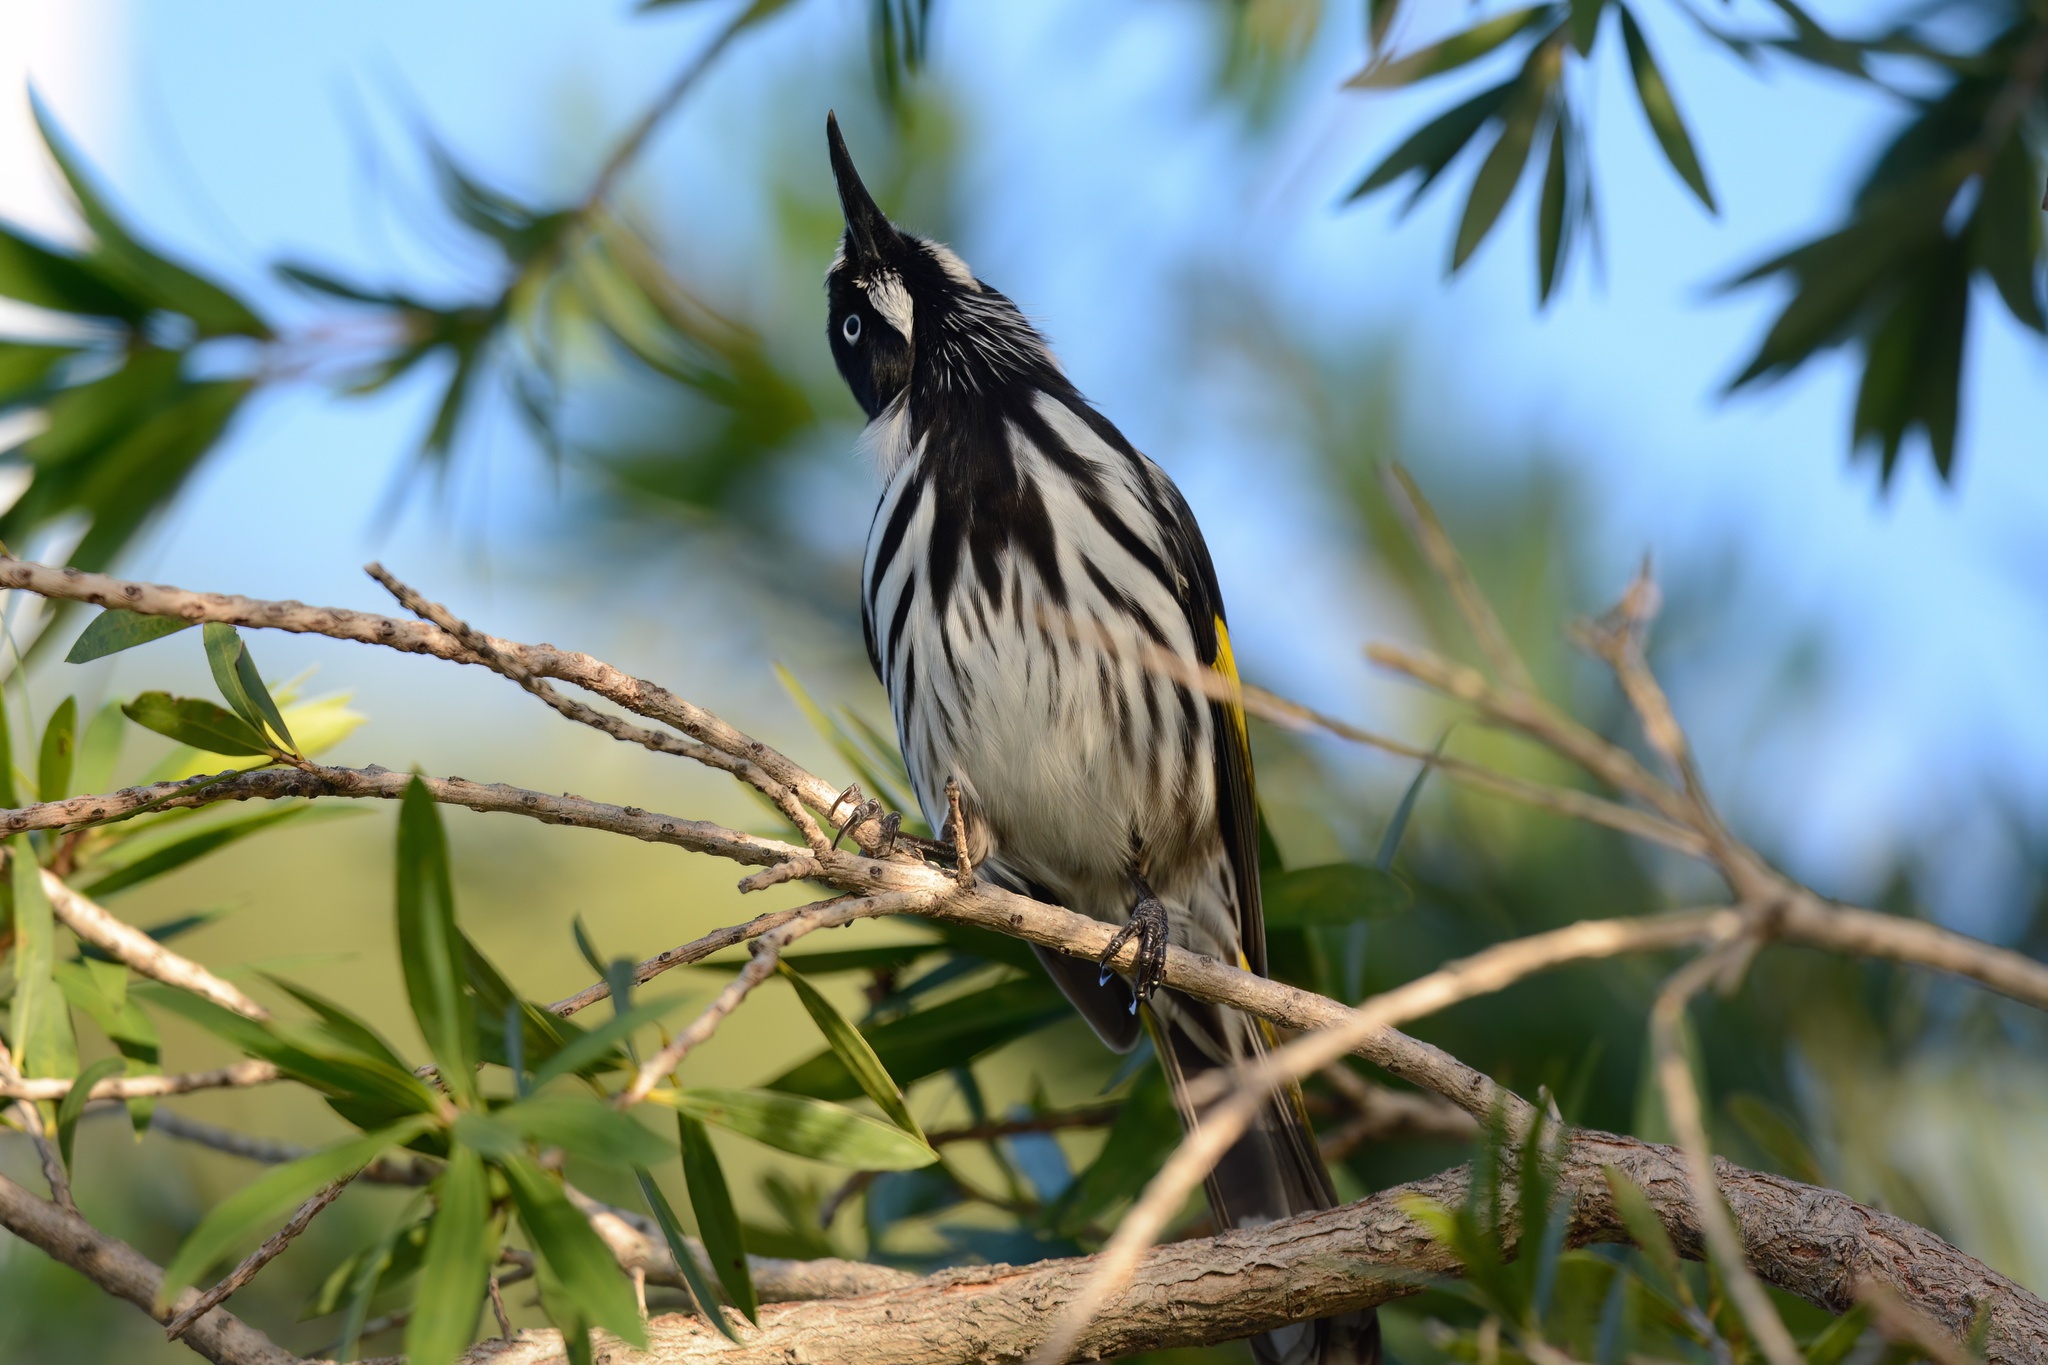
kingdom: Animalia
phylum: Chordata
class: Aves
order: Passeriformes
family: Meliphagidae
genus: Phylidonyris
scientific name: Phylidonyris novaehollandiae
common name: New holland honeyeater
